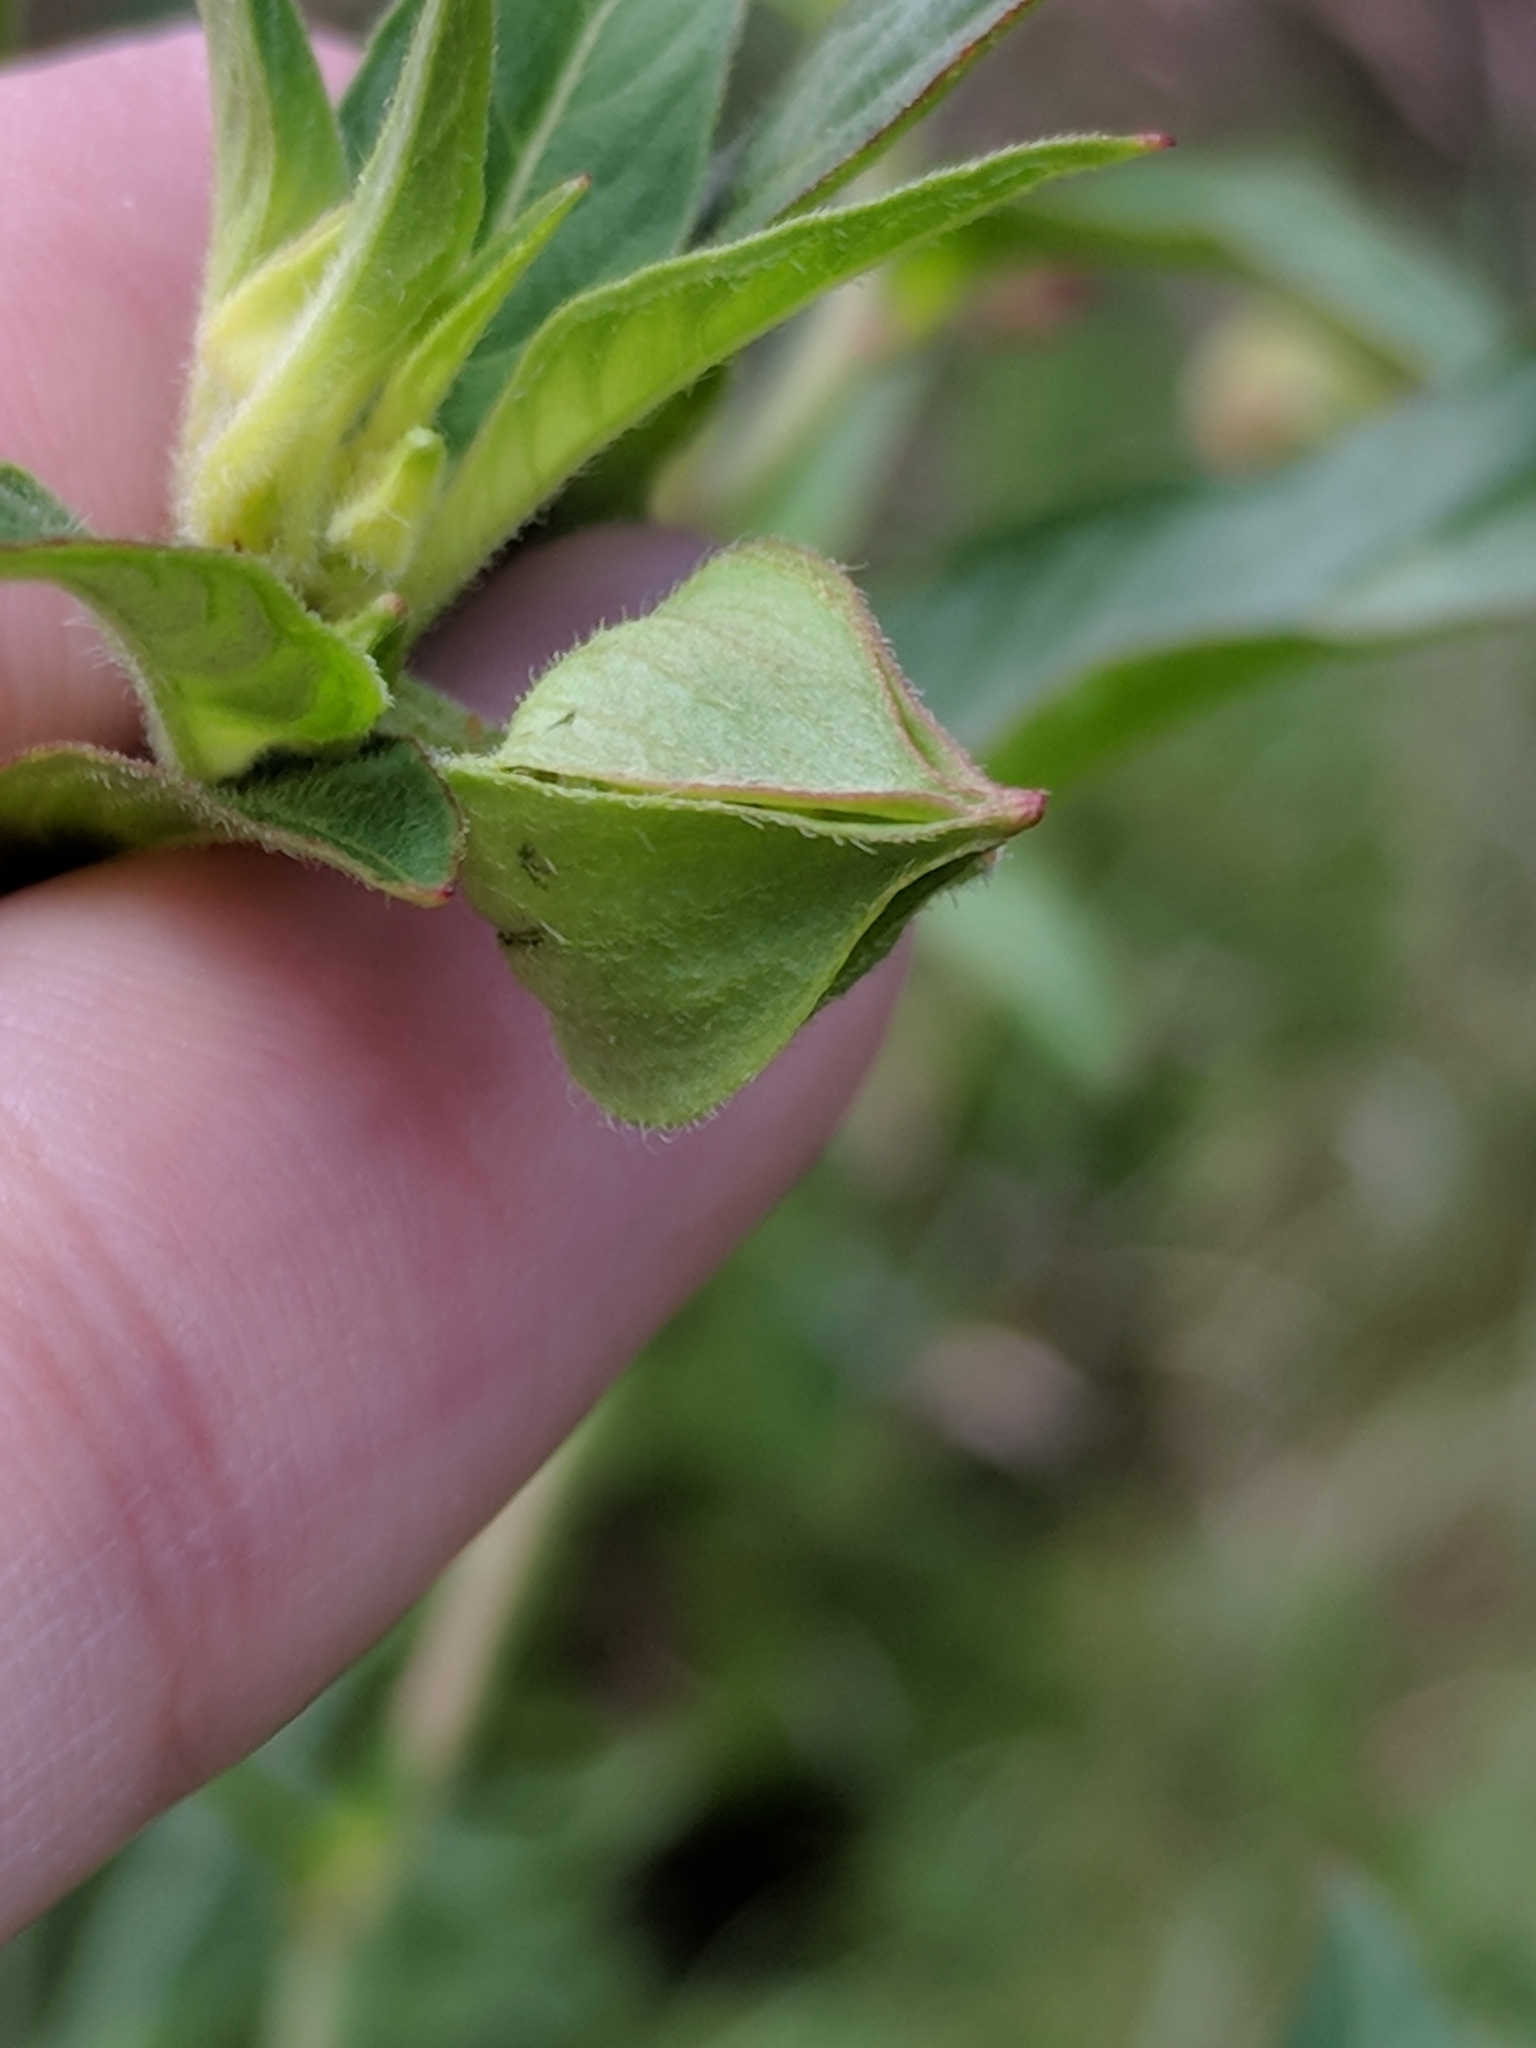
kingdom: Plantae
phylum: Tracheophyta
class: Magnoliopsida
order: Myrtales
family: Onagraceae
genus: Ludwigia
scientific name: Ludwigia octovalvis
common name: Water-primrose
